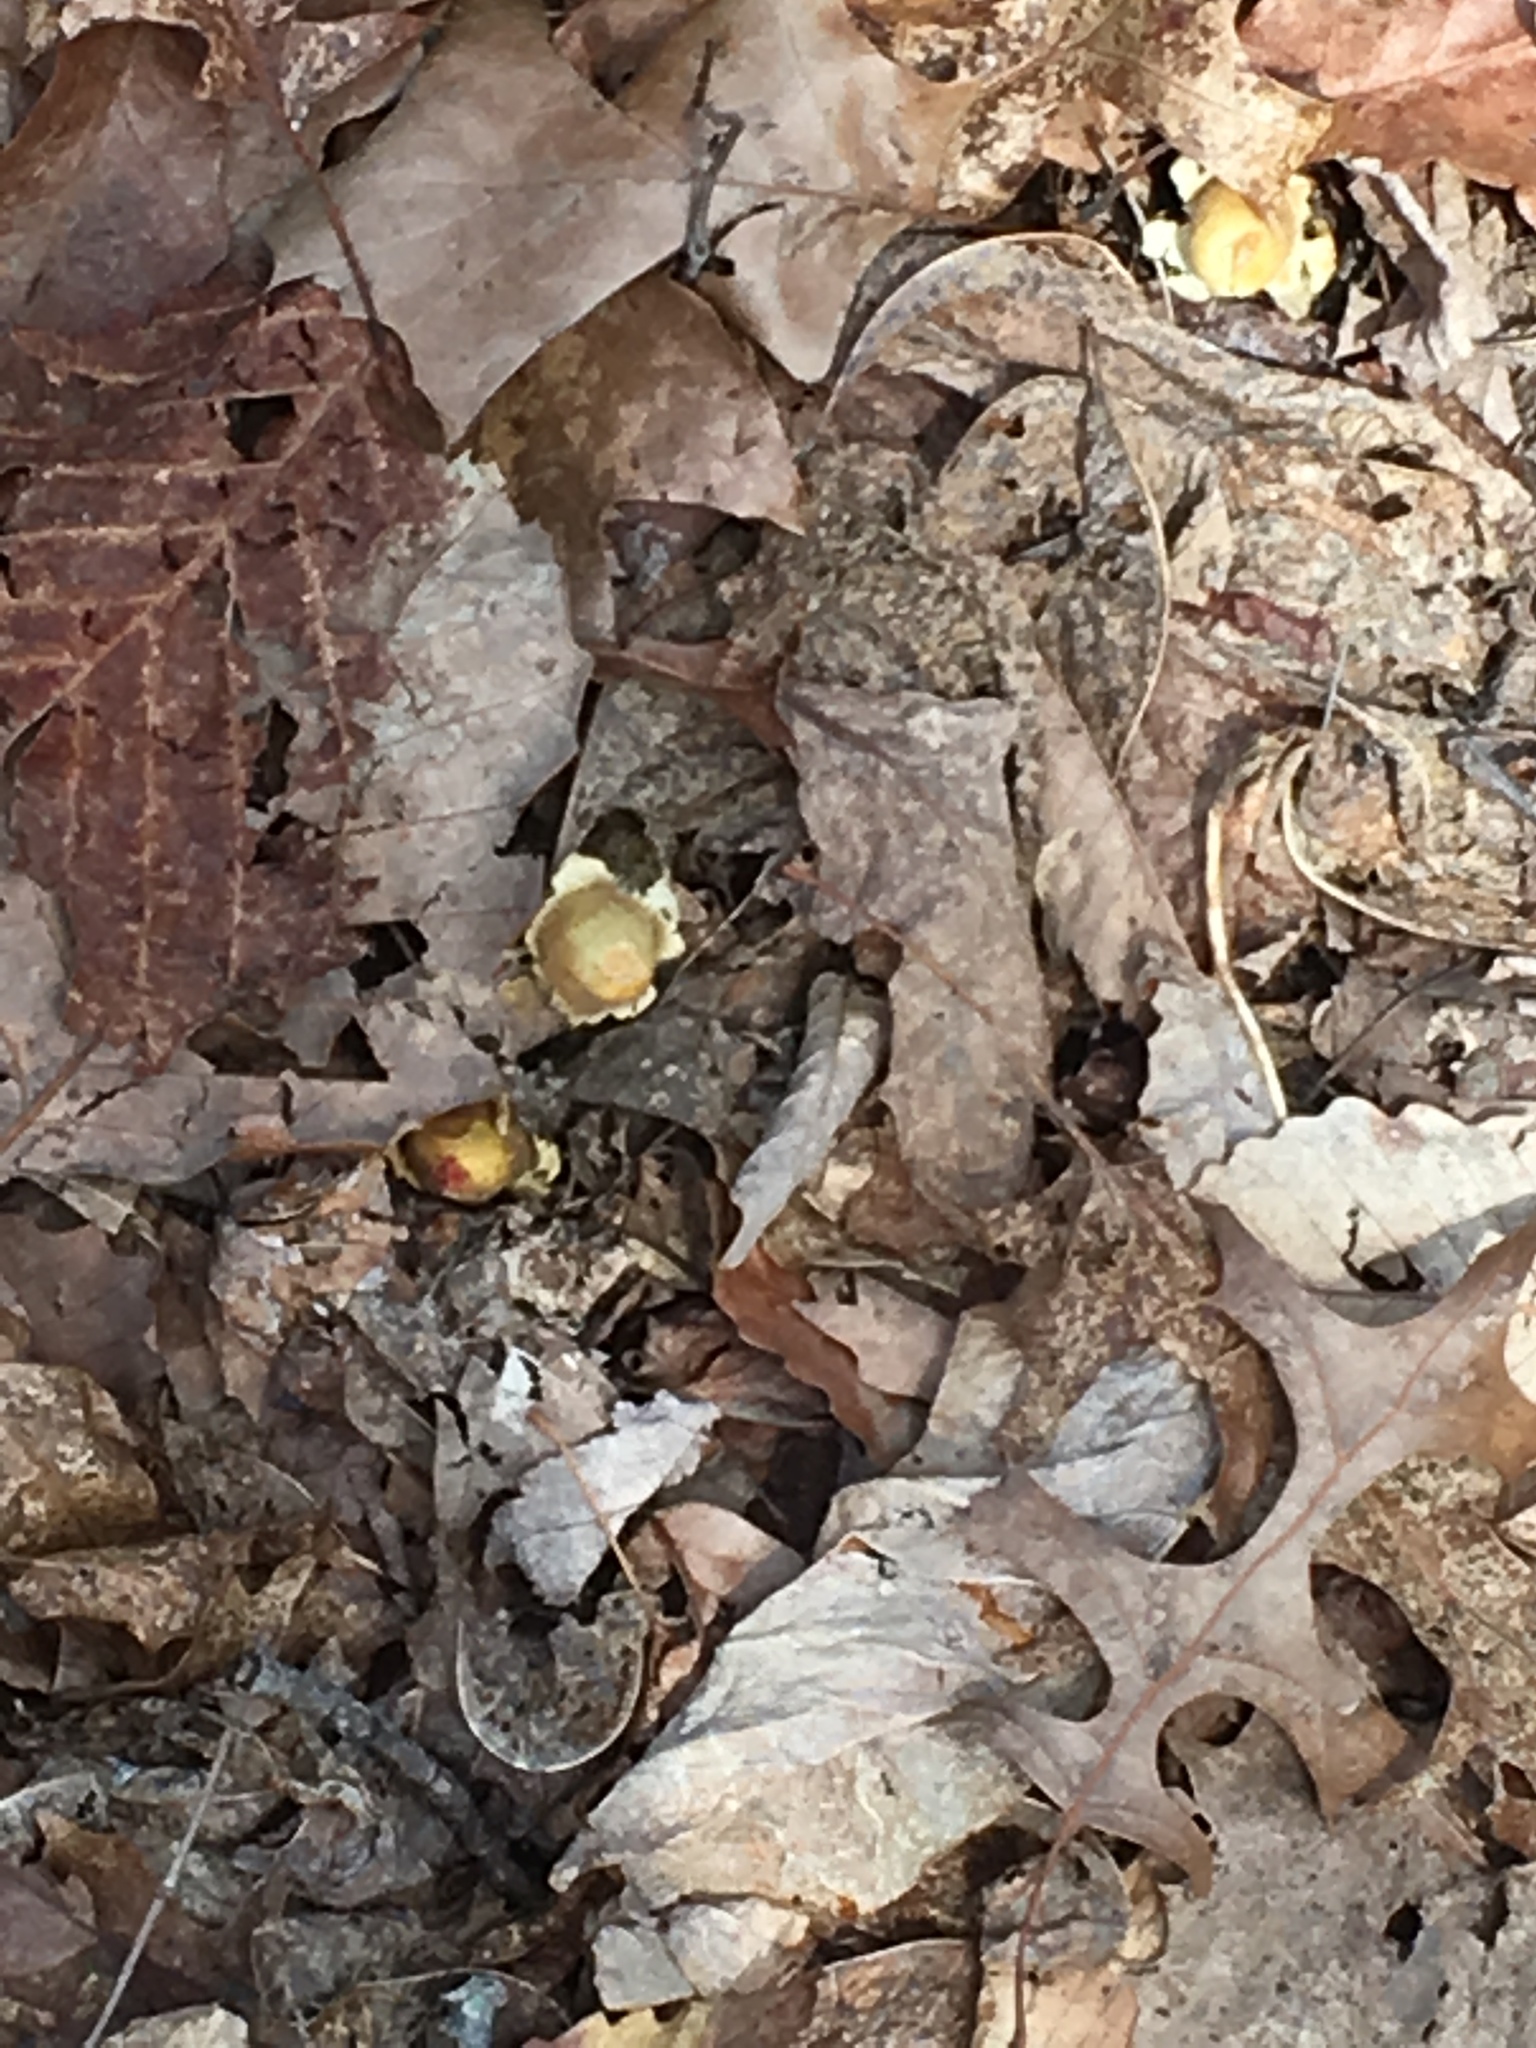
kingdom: Fungi
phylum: Basidiomycota
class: Agaricomycetes
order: Boletales
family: Calostomataceae
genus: Calostoma
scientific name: Calostoma lutescens
